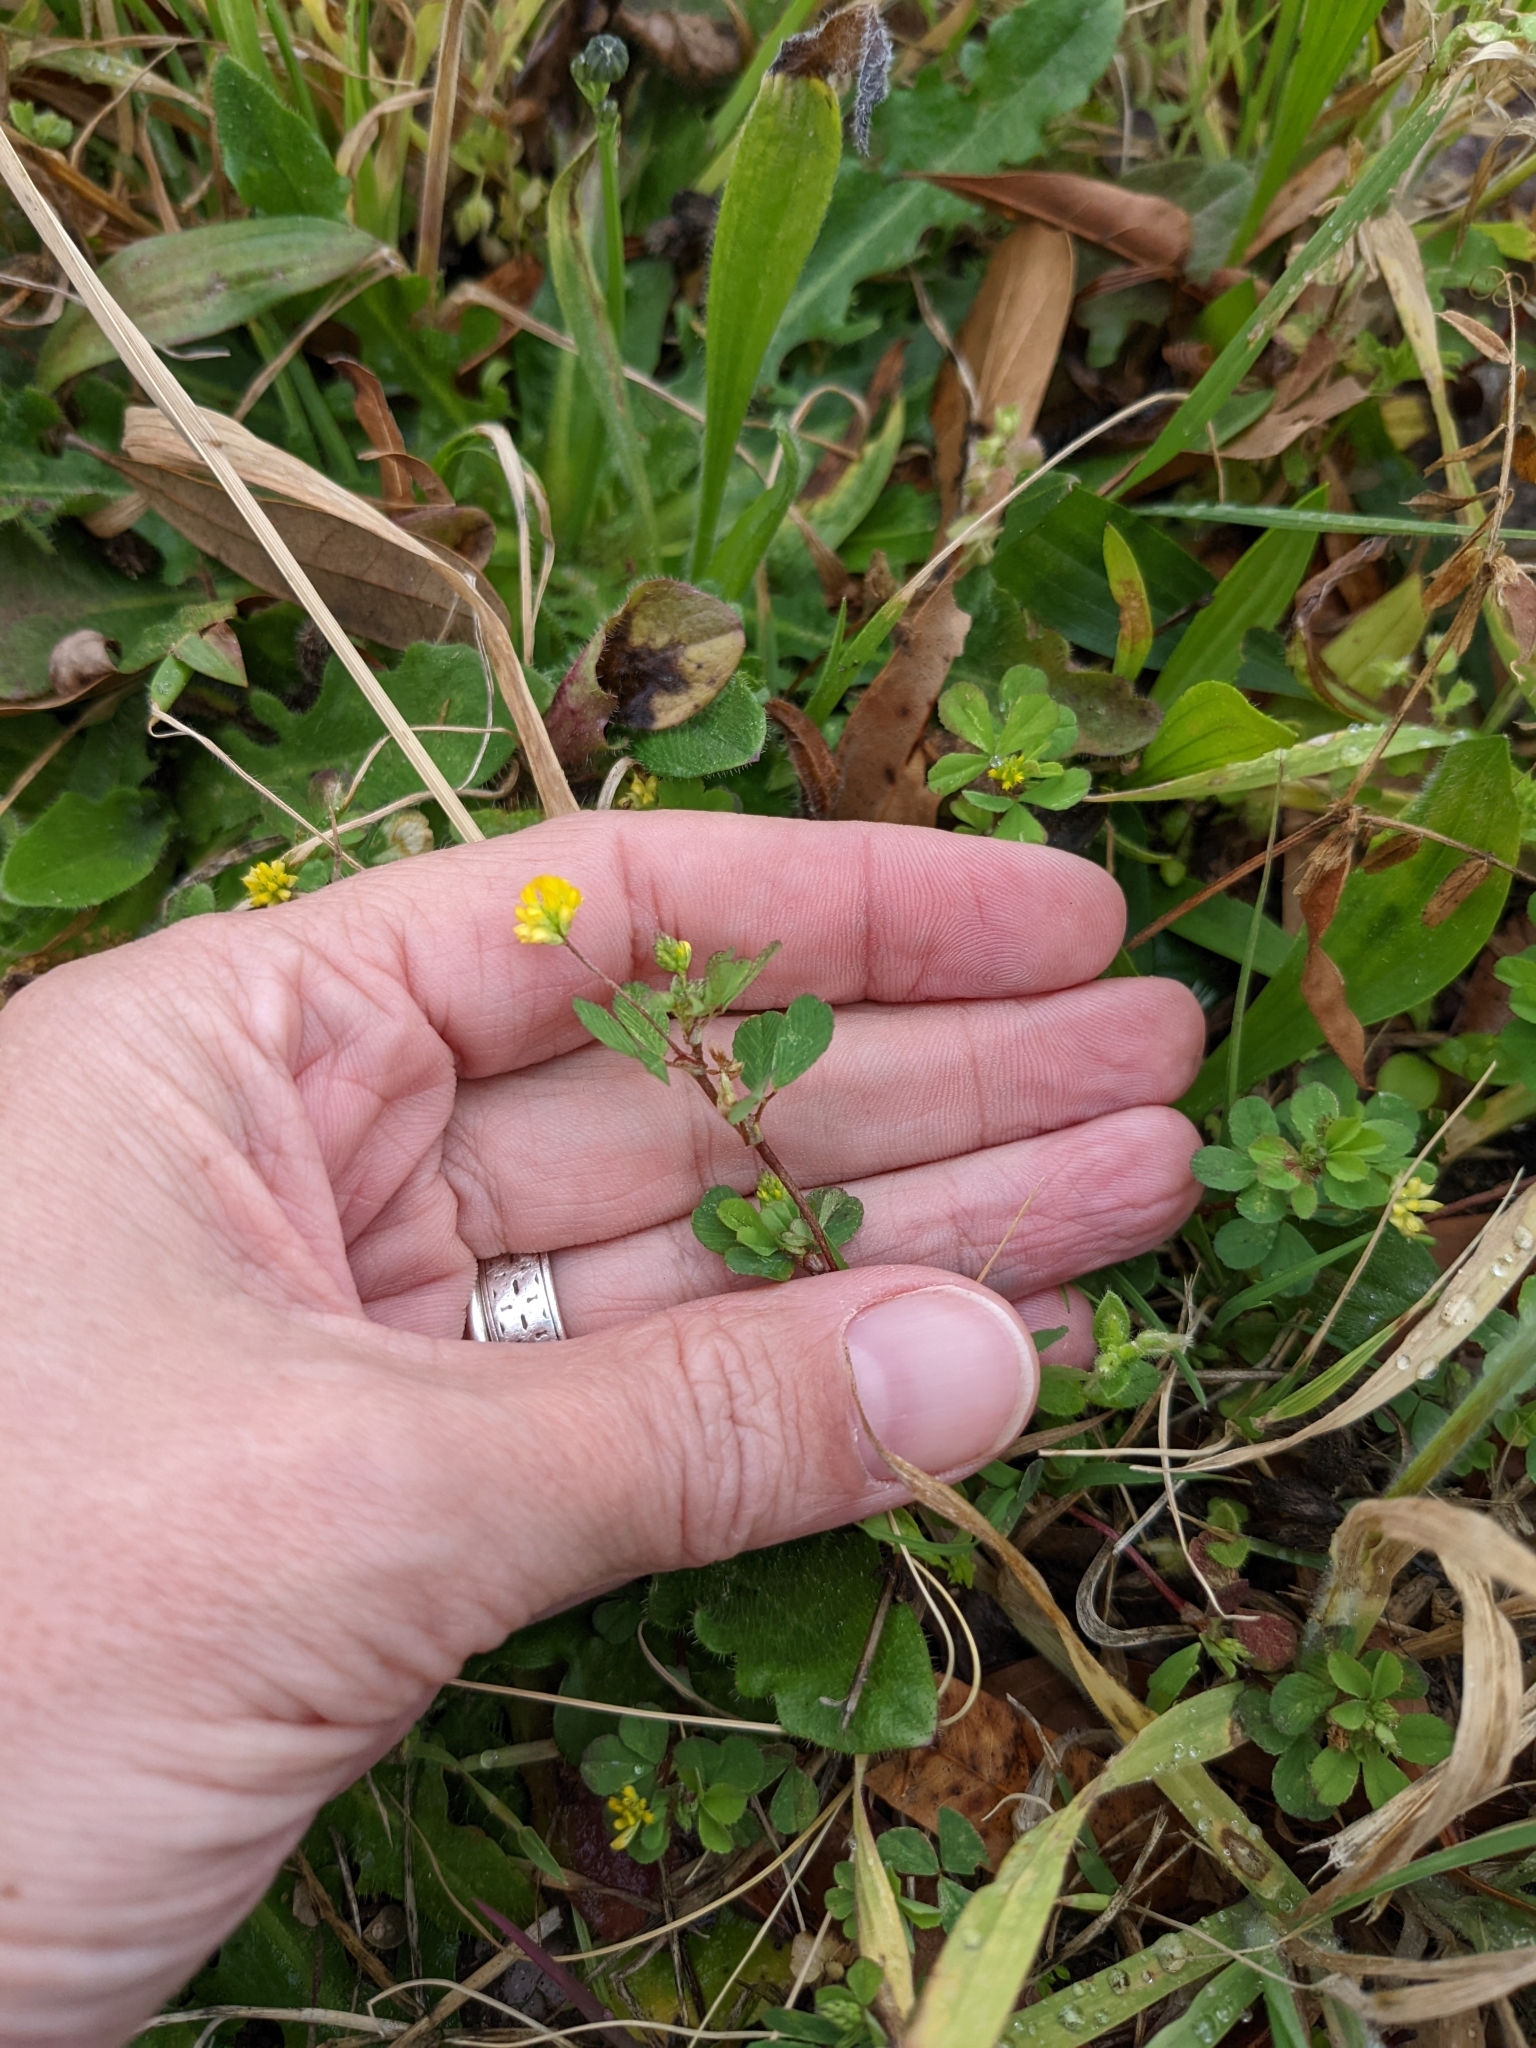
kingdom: Plantae
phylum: Tracheophyta
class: Magnoliopsida
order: Fabales
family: Fabaceae
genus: Trifolium
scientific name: Trifolium dubium
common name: Suckling clover
